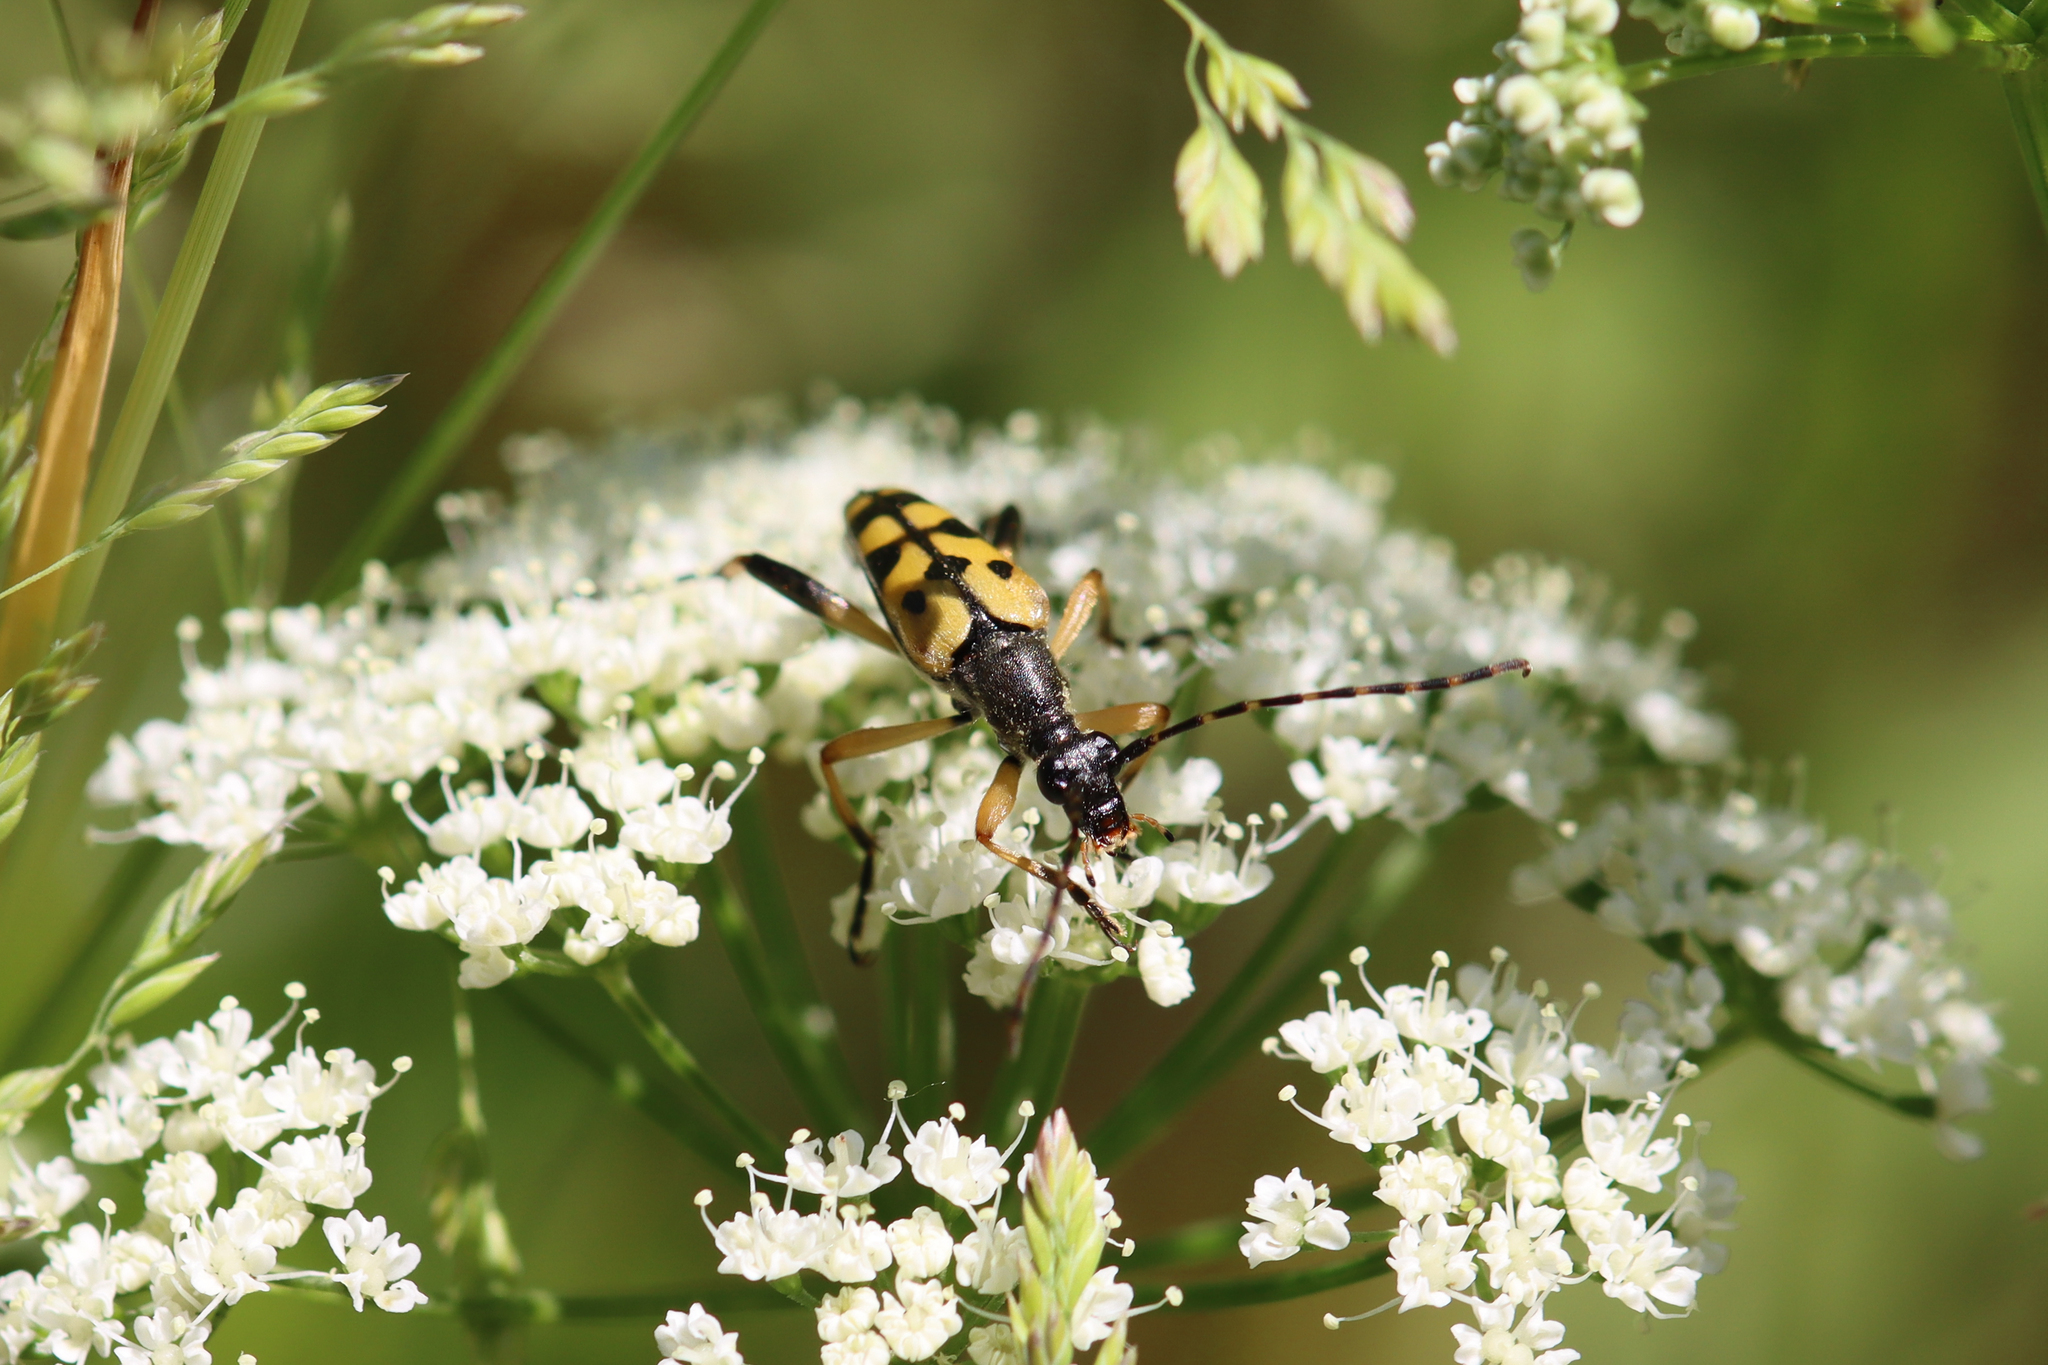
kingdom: Animalia
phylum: Arthropoda
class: Insecta
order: Coleoptera
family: Cerambycidae
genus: Rutpela
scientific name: Rutpela maculata
